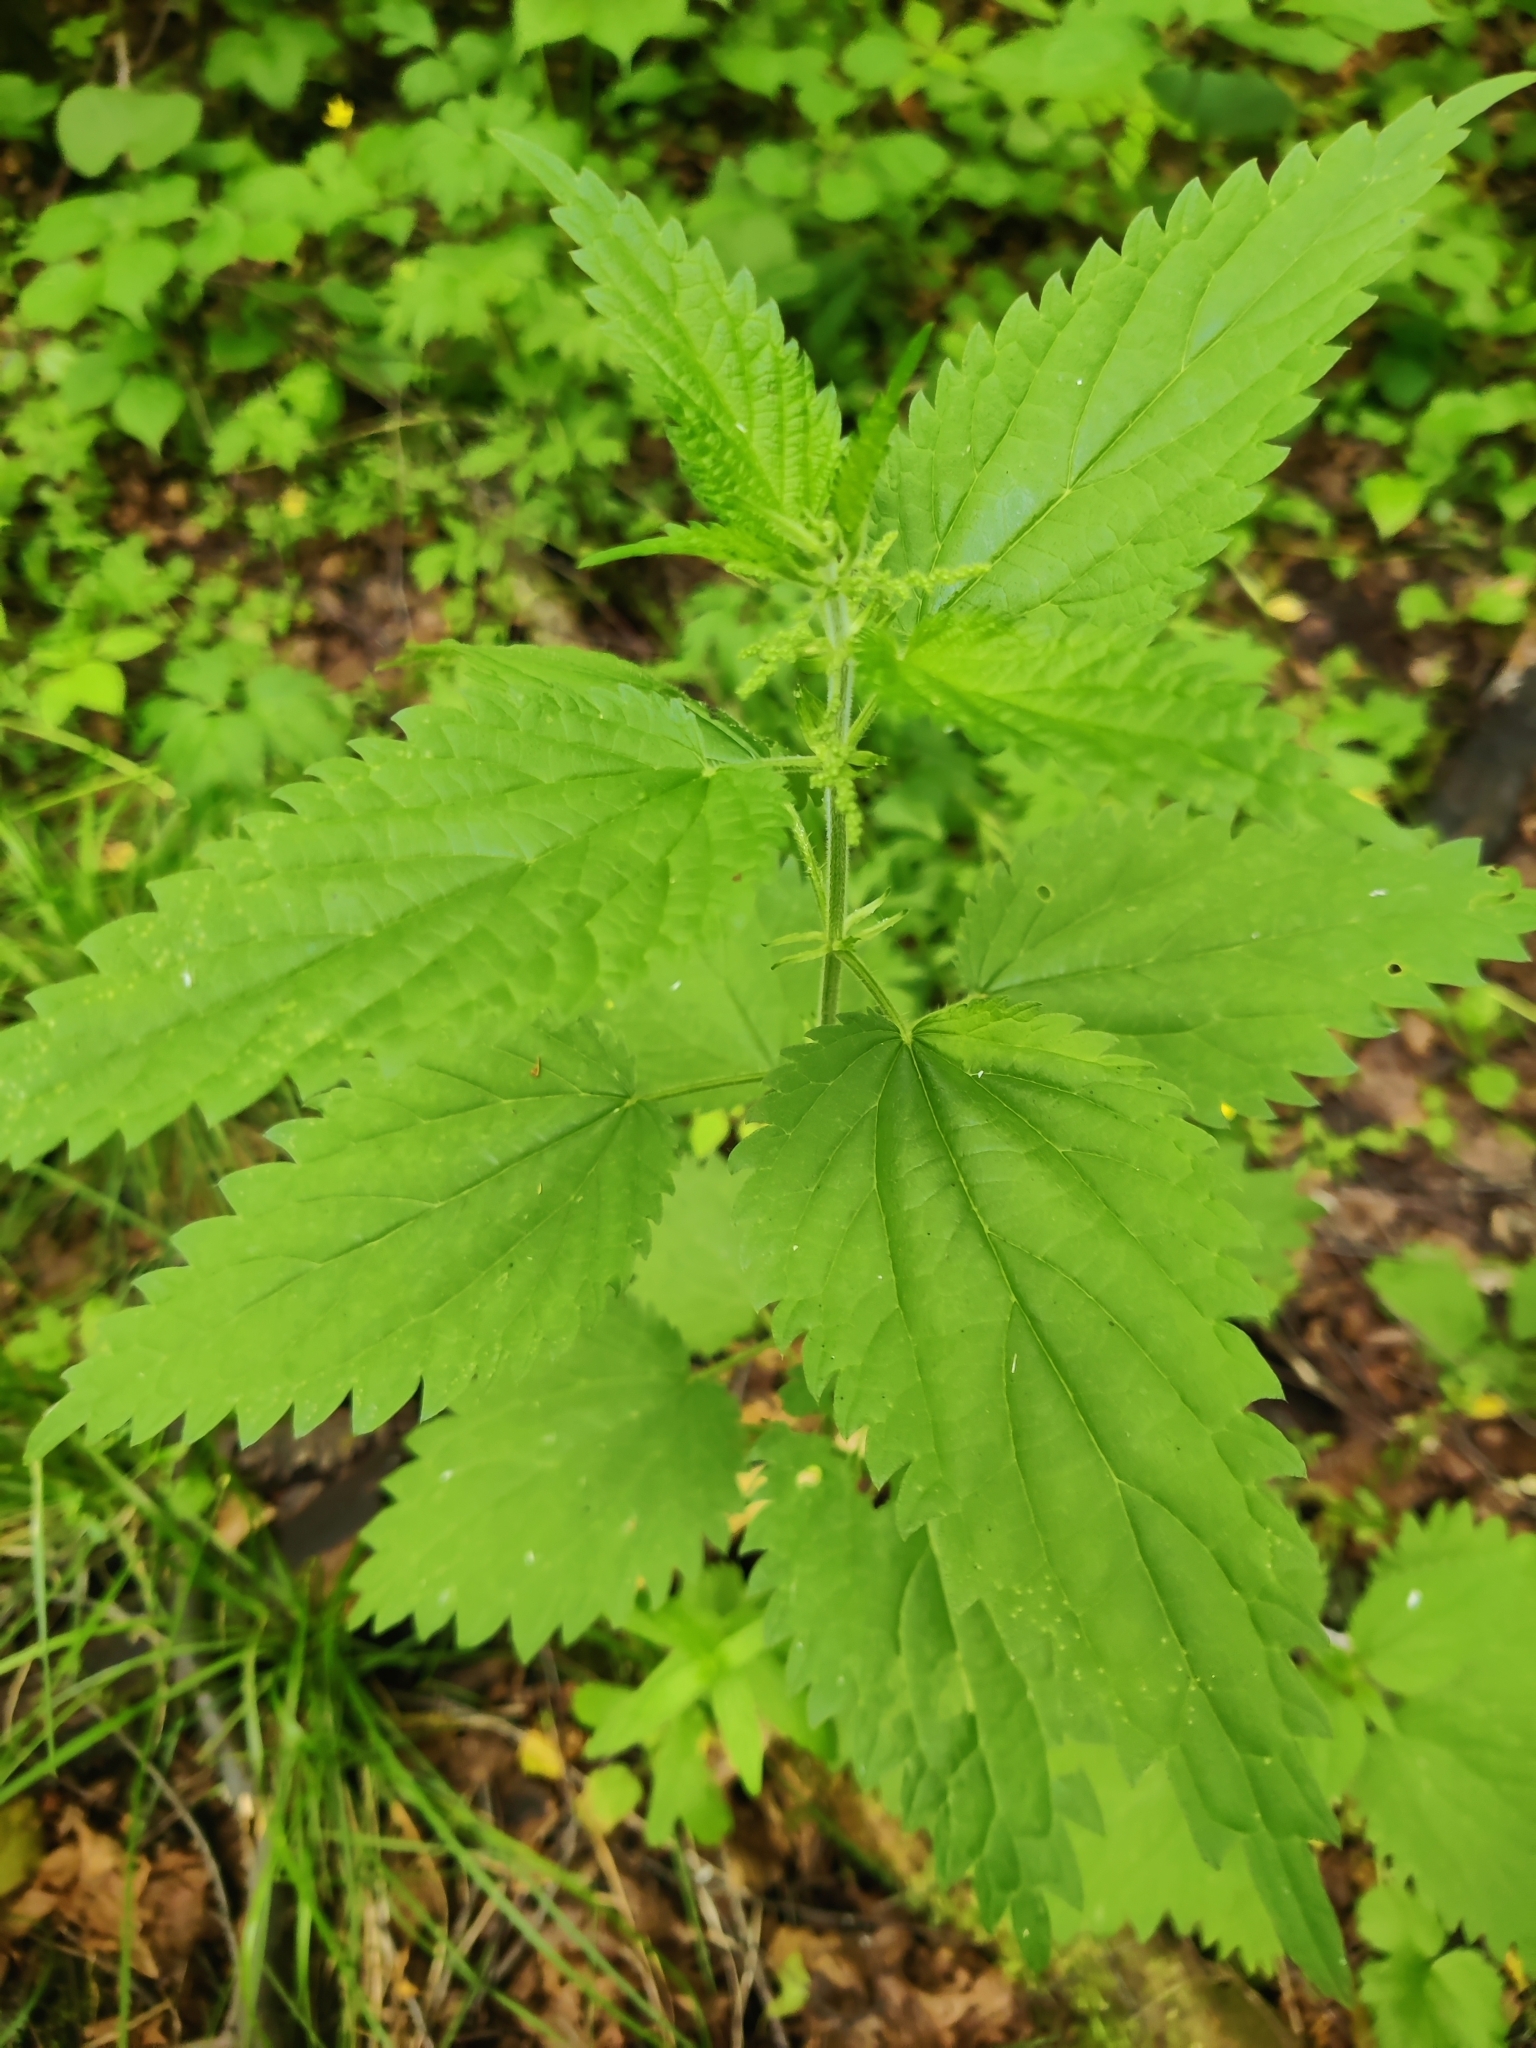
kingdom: Plantae
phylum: Tracheophyta
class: Magnoliopsida
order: Rosales
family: Urticaceae
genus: Urtica
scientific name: Urtica dioica
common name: Common nettle
